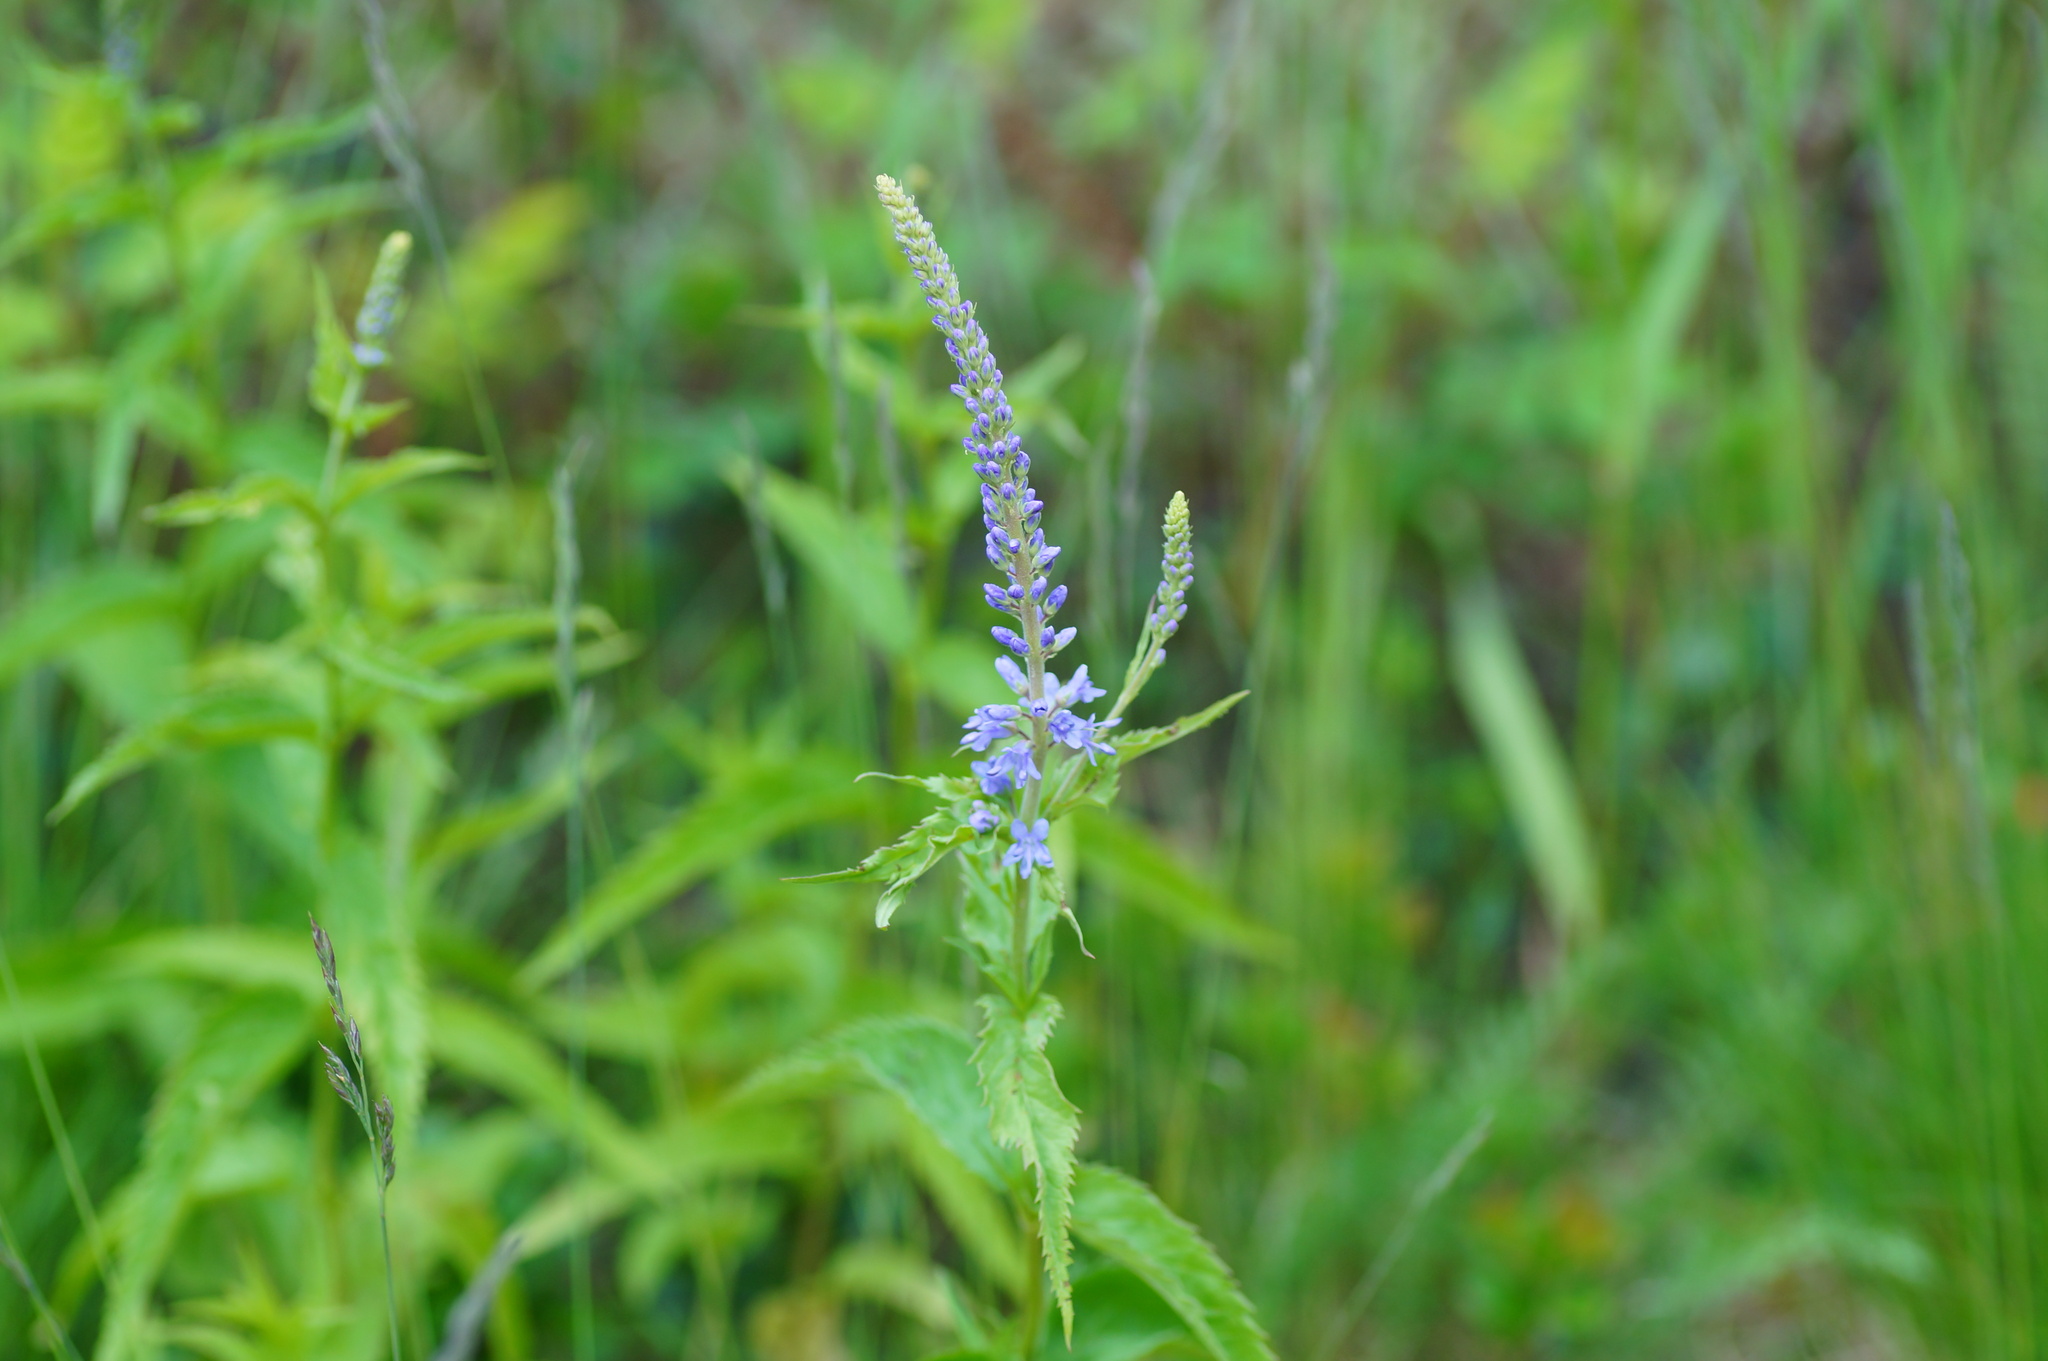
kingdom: Plantae
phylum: Tracheophyta
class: Magnoliopsida
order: Lamiales
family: Plantaginaceae
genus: Veronica
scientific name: Veronica longifolia
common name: Garden speedwell
